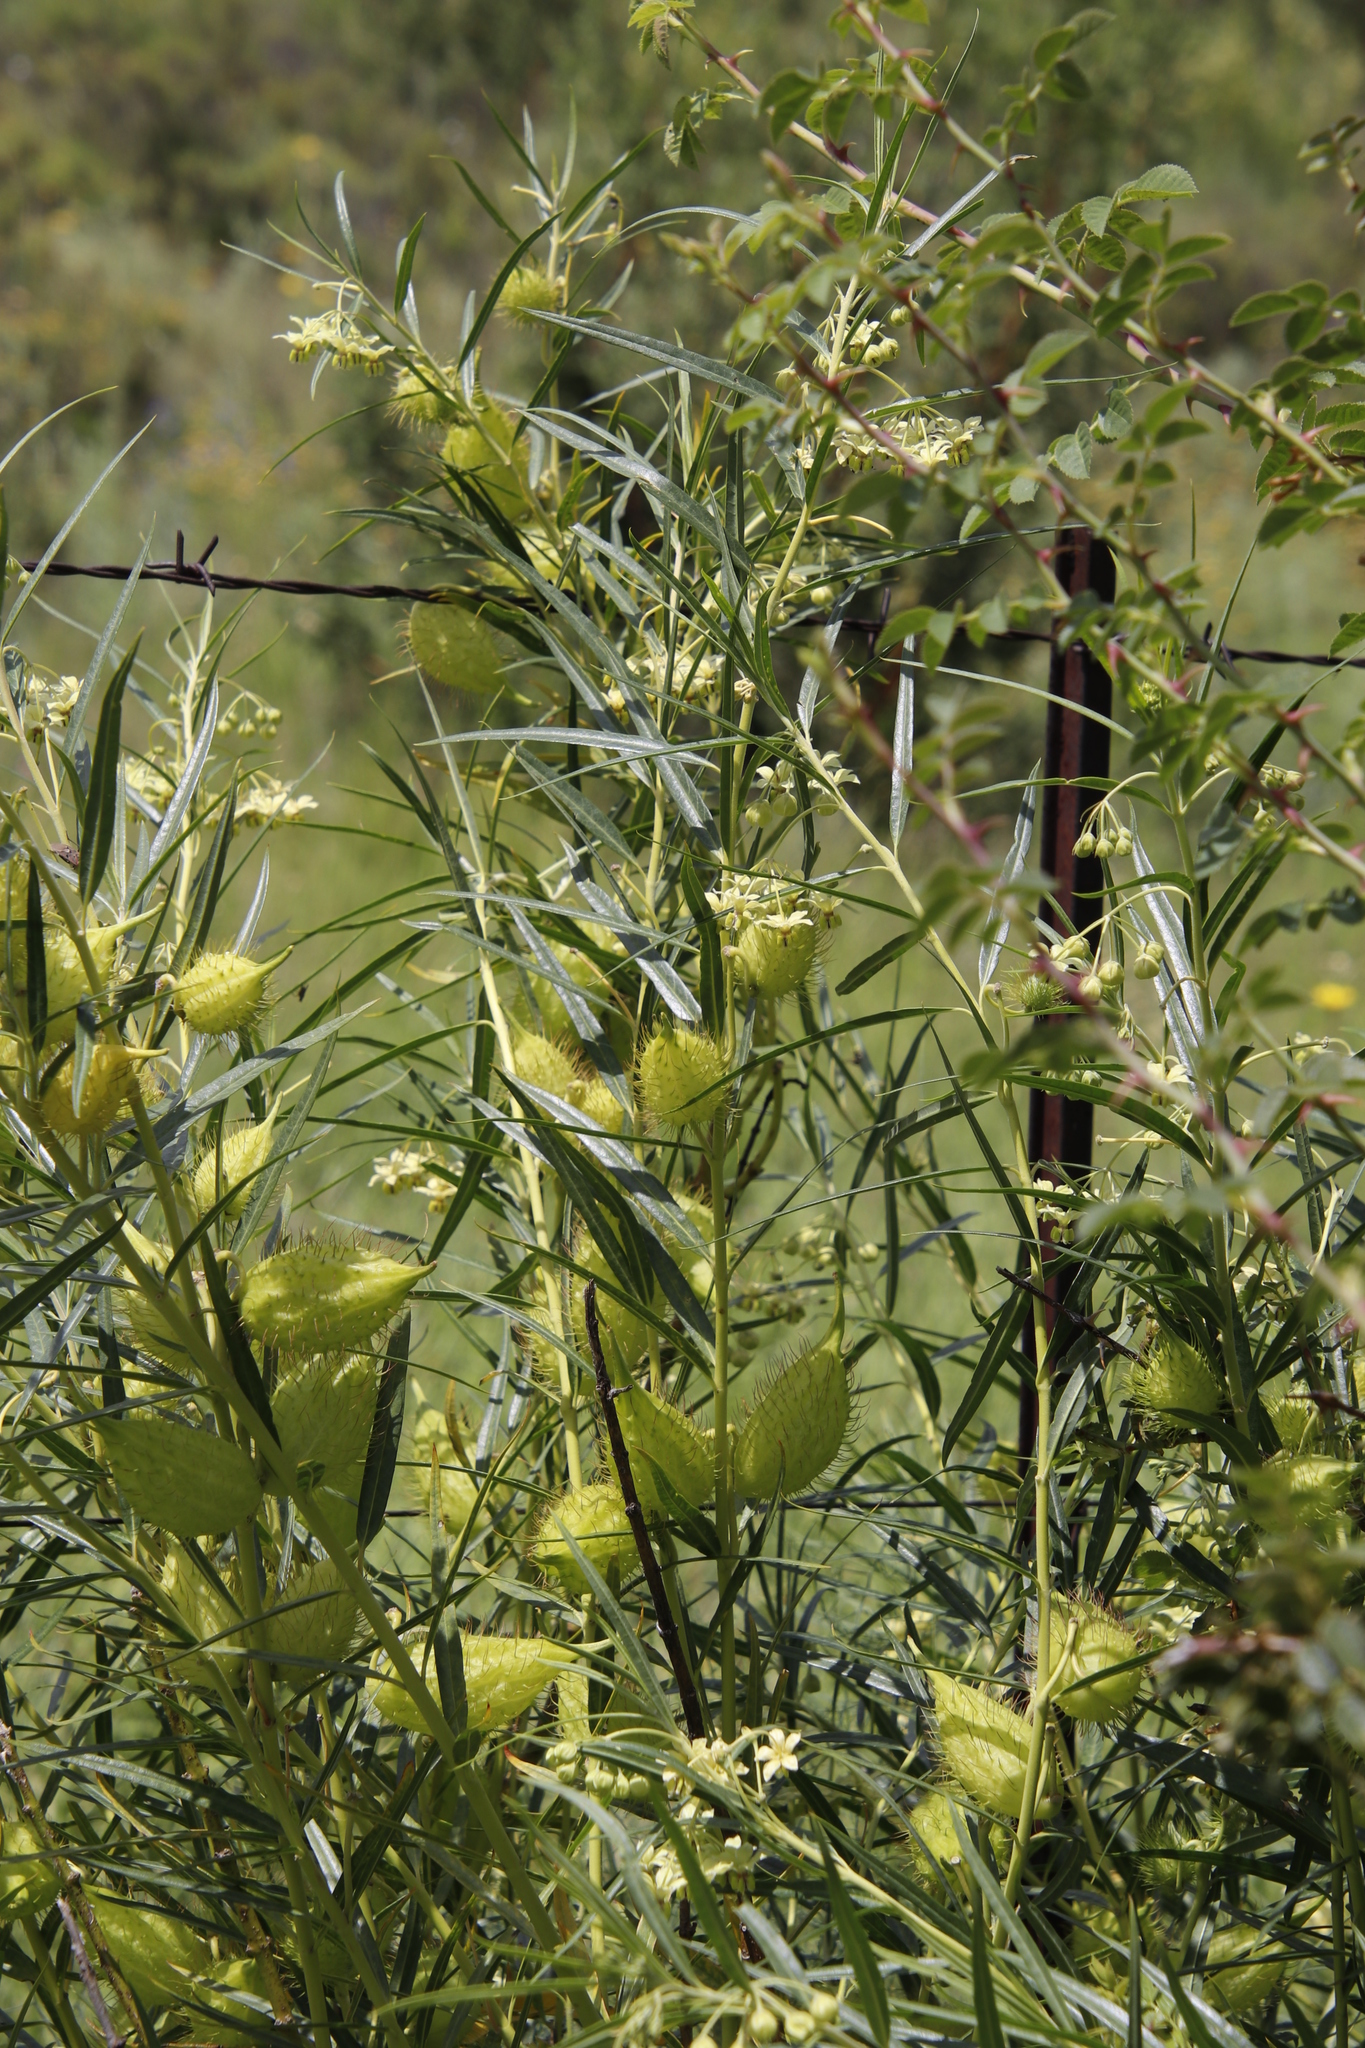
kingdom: Plantae
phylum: Tracheophyta
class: Magnoliopsida
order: Gentianales
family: Apocynaceae
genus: Gomphocarpus
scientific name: Gomphocarpus fruticosus
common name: Milkweed
